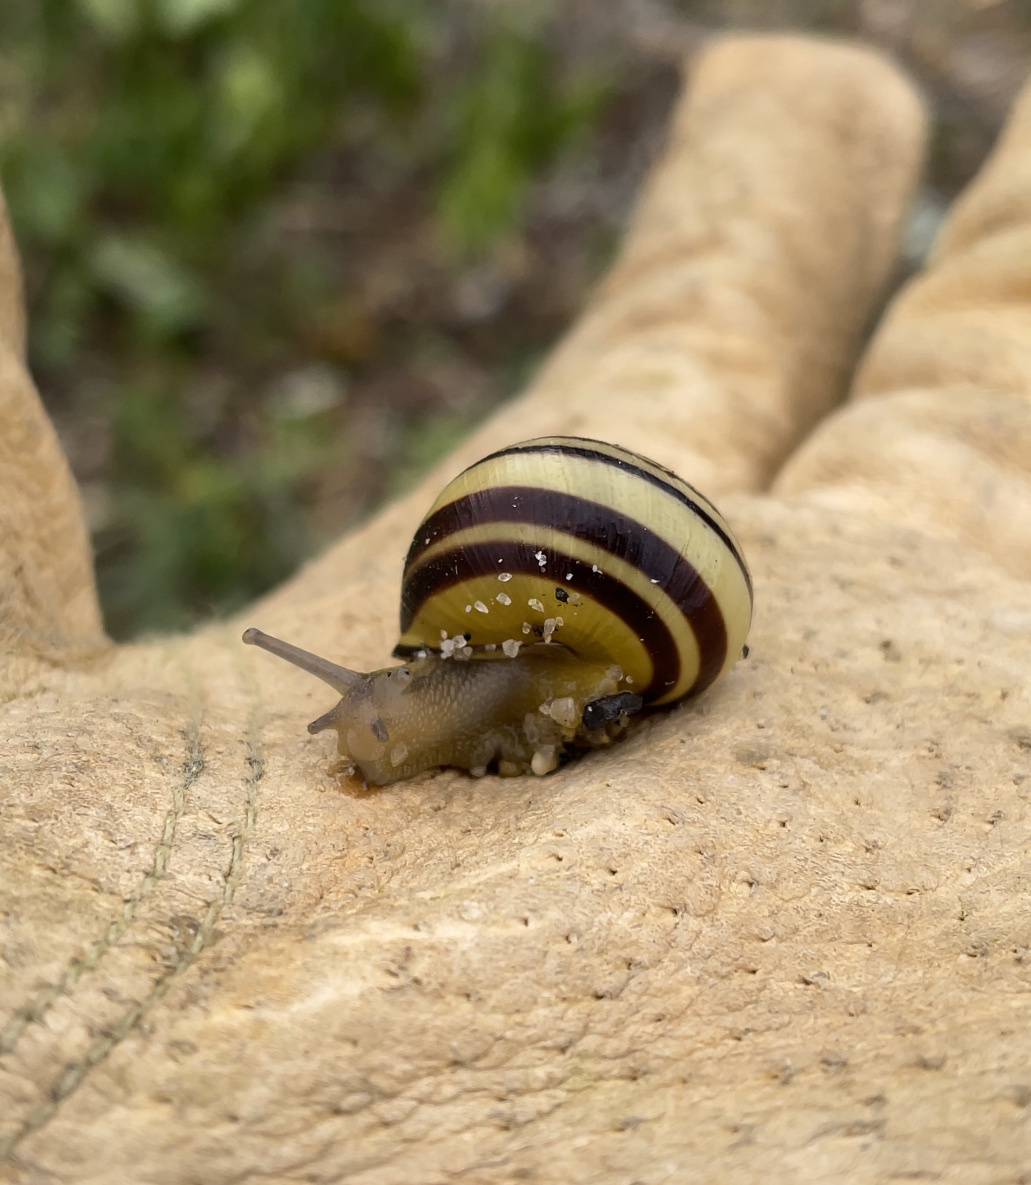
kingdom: Animalia
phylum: Mollusca
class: Gastropoda
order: Stylommatophora
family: Helicidae
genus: Cepaea
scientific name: Cepaea nemoralis
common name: Grovesnail
